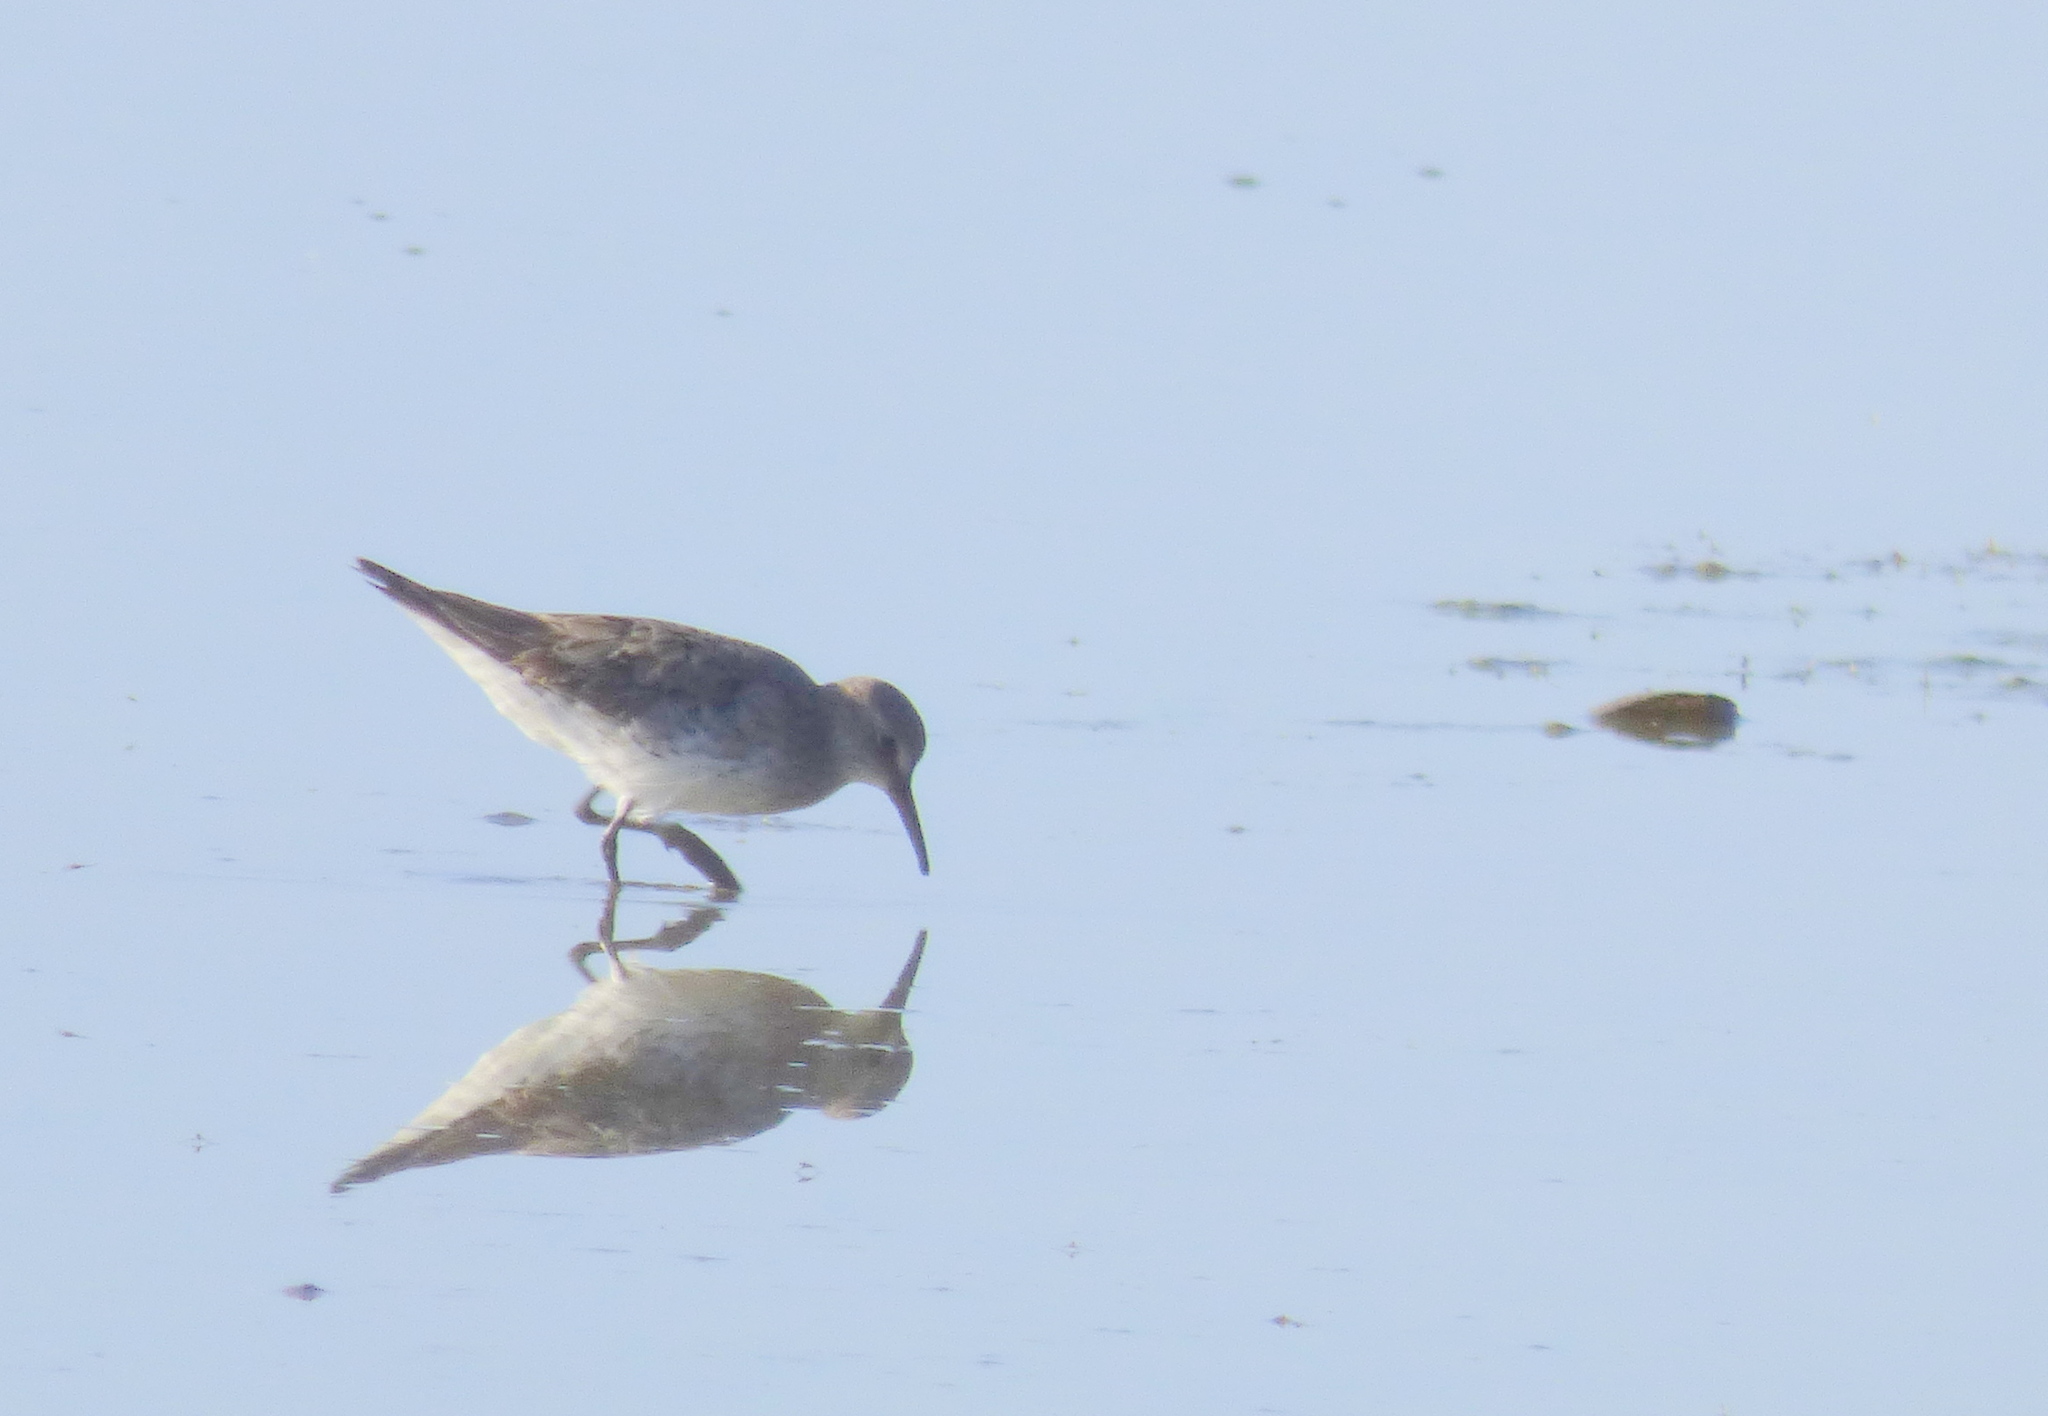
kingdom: Animalia
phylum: Chordata
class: Aves
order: Charadriiformes
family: Scolopacidae
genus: Calidris
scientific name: Calidris fuscicollis
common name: White-rumped sandpiper
